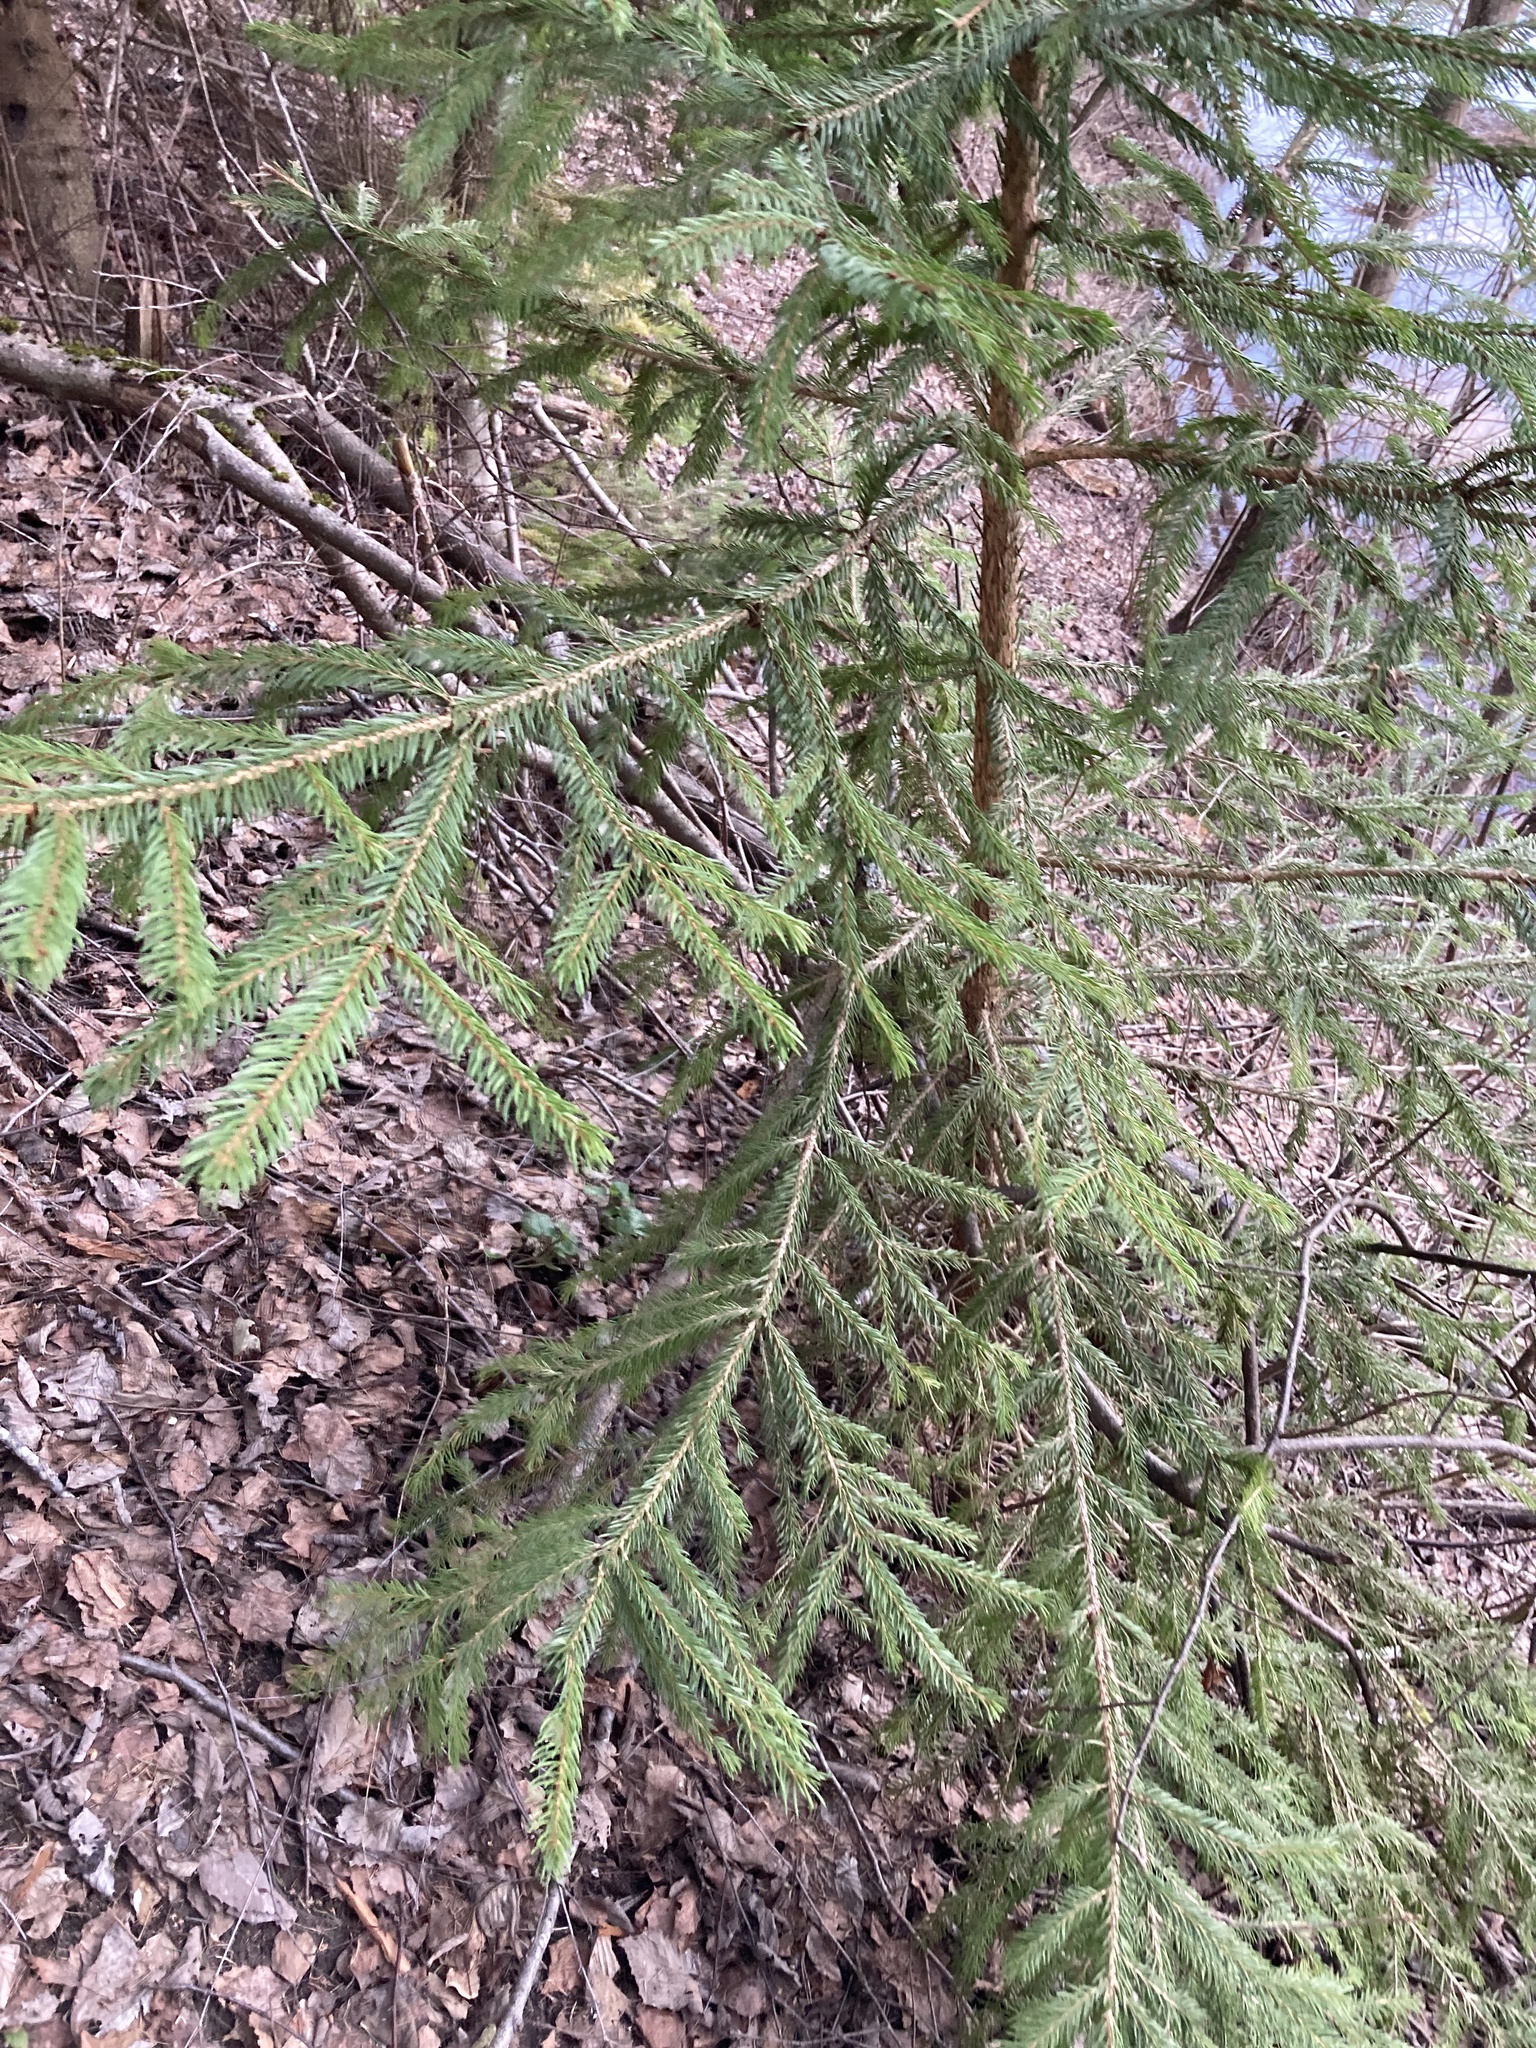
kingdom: Plantae
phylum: Tracheophyta
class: Pinopsida
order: Pinales
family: Pinaceae
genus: Picea
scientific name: Picea abies
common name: Norway spruce
